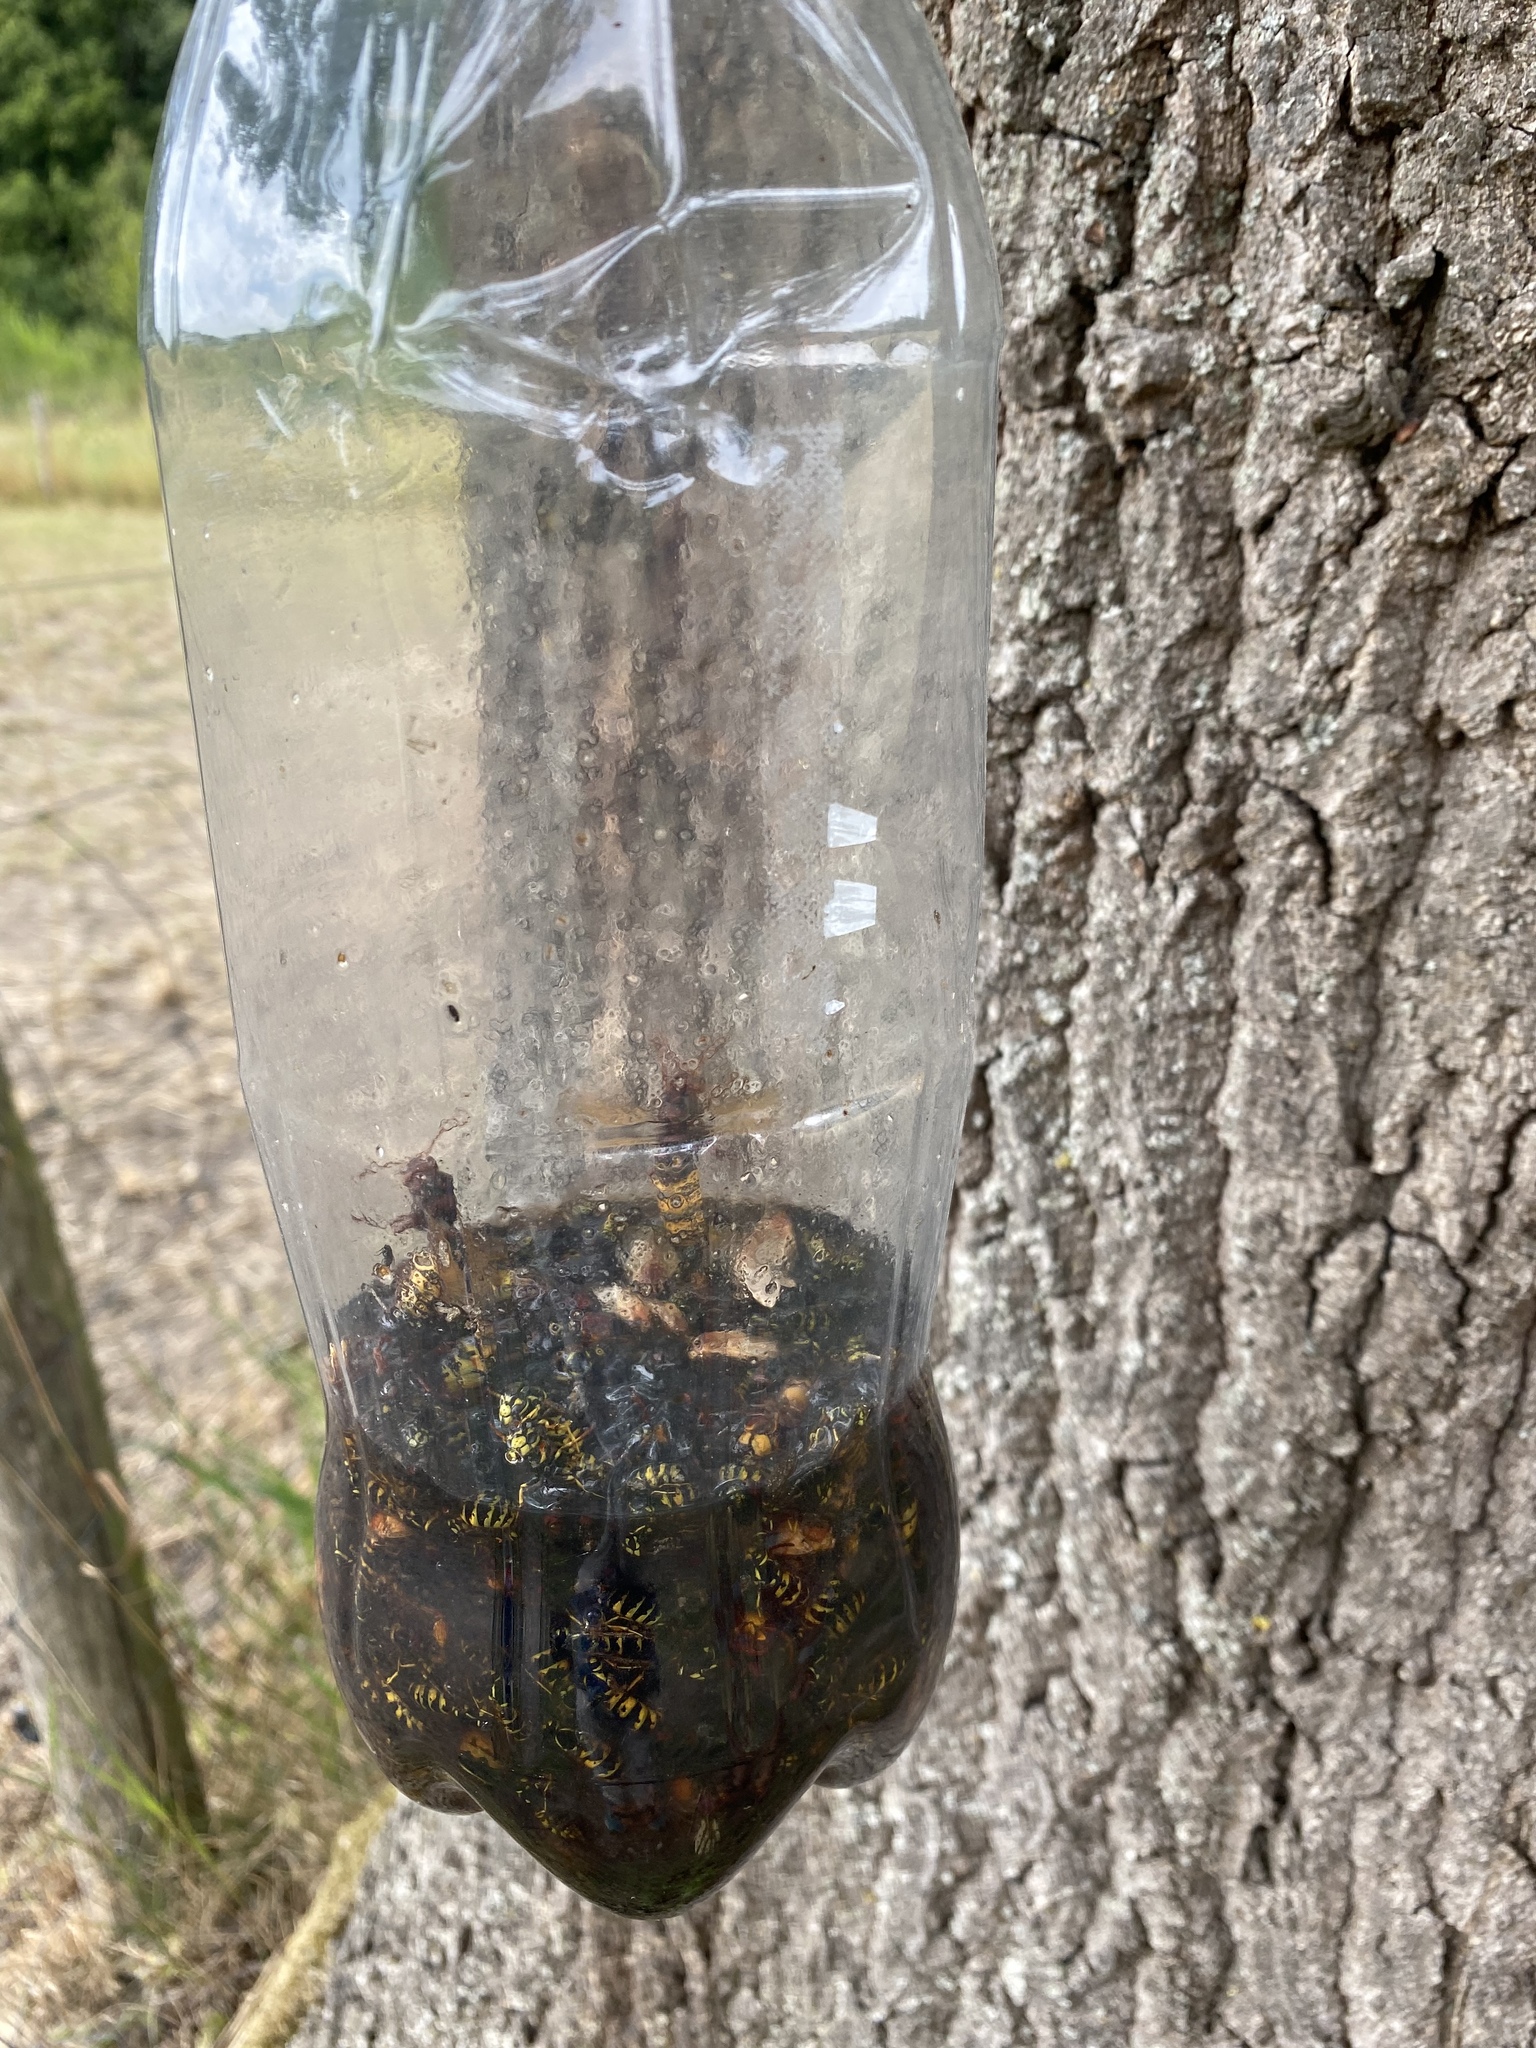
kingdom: Animalia
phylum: Arthropoda
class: Insecta
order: Hymenoptera
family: Vespidae
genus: Vespa
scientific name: Vespa crabro
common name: Hornet
